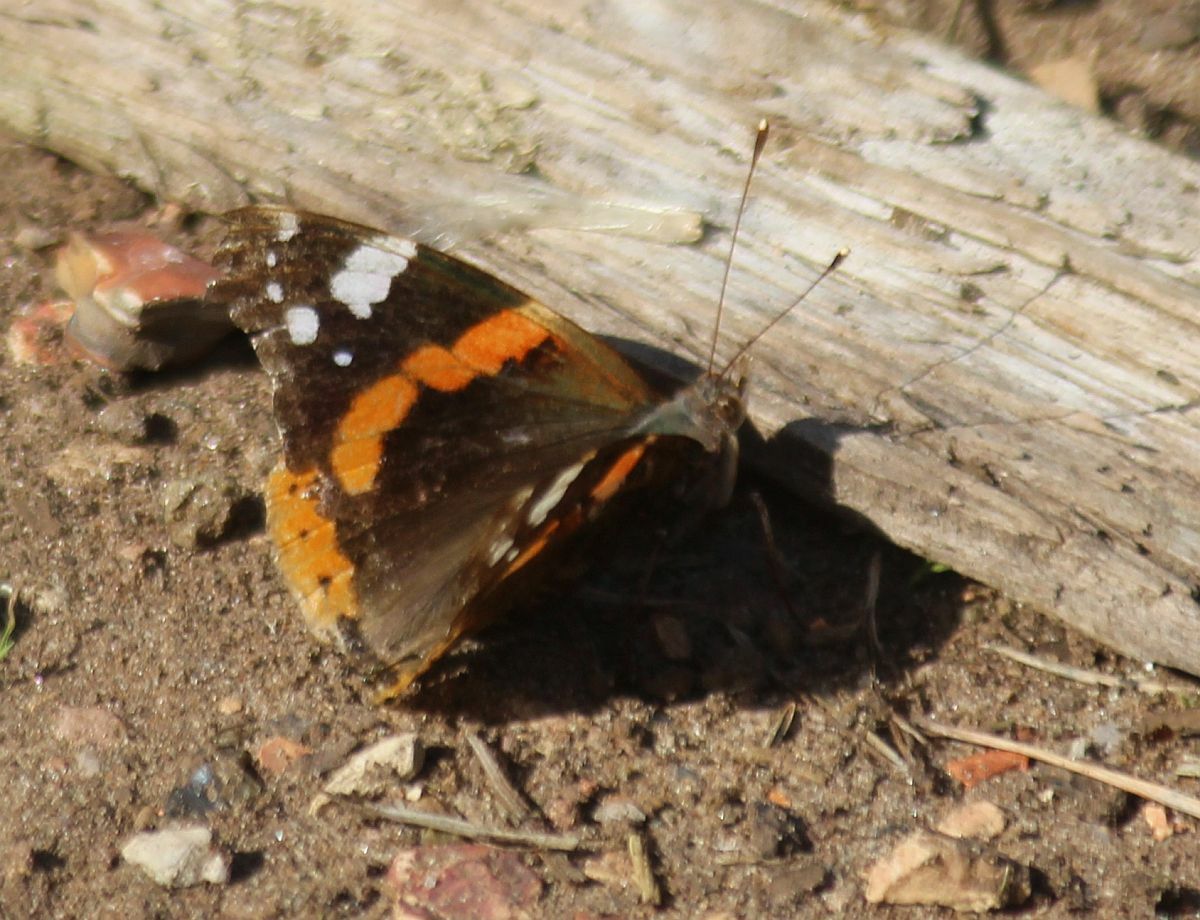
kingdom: Animalia
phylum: Arthropoda
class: Insecta
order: Lepidoptera
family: Nymphalidae
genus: Vanessa
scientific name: Vanessa atalanta
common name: Red admiral
